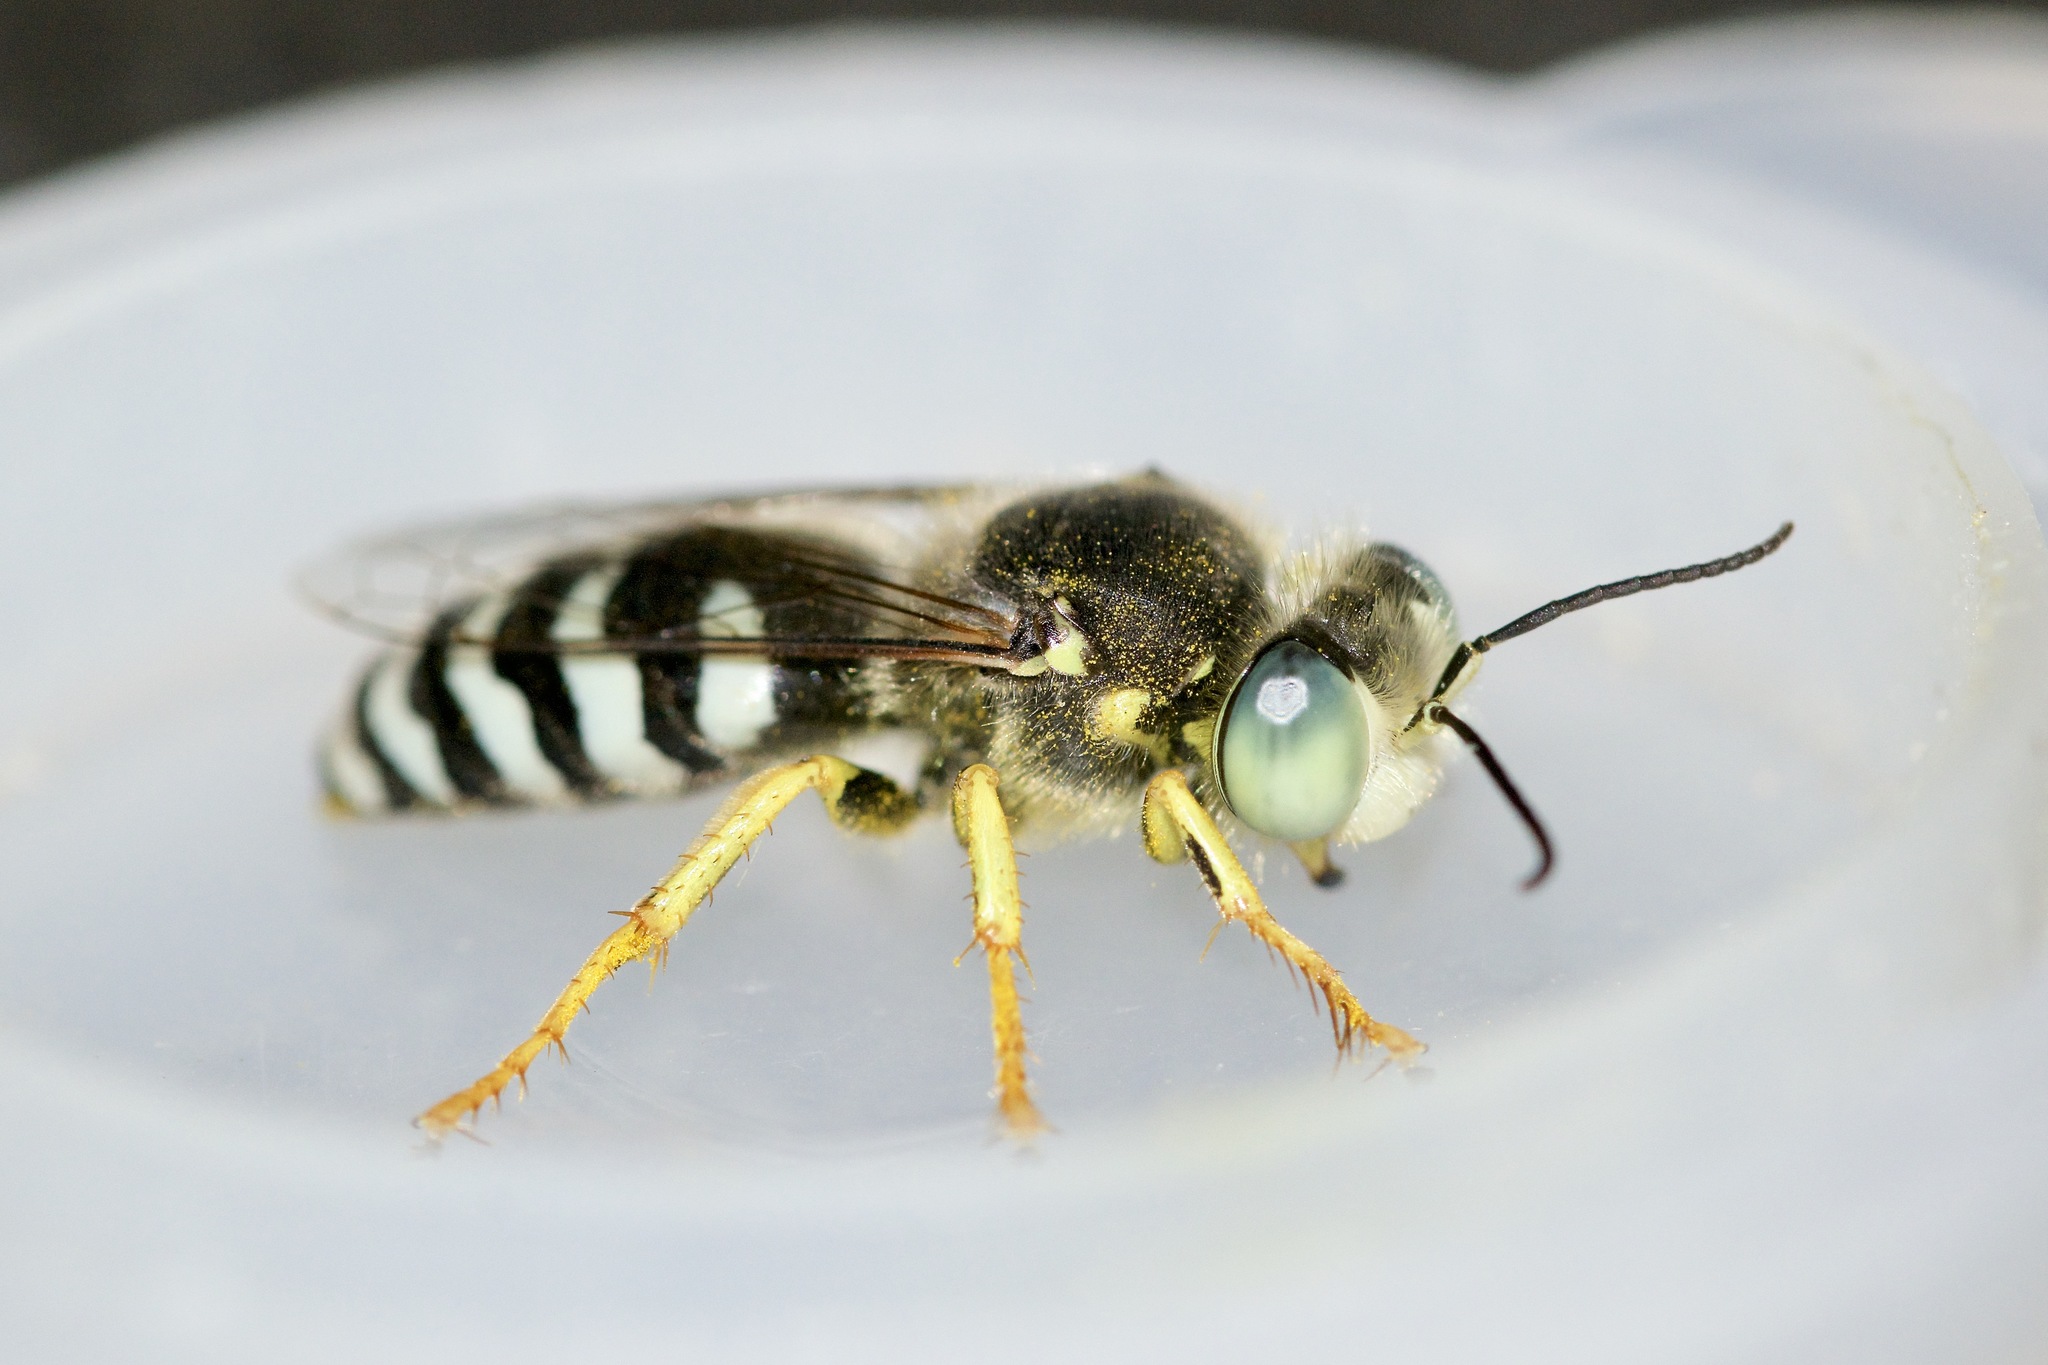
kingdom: Animalia
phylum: Arthropoda
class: Insecta
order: Hymenoptera
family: Crabronidae
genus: Bembix
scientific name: Bembix americana
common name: American sand wasp
